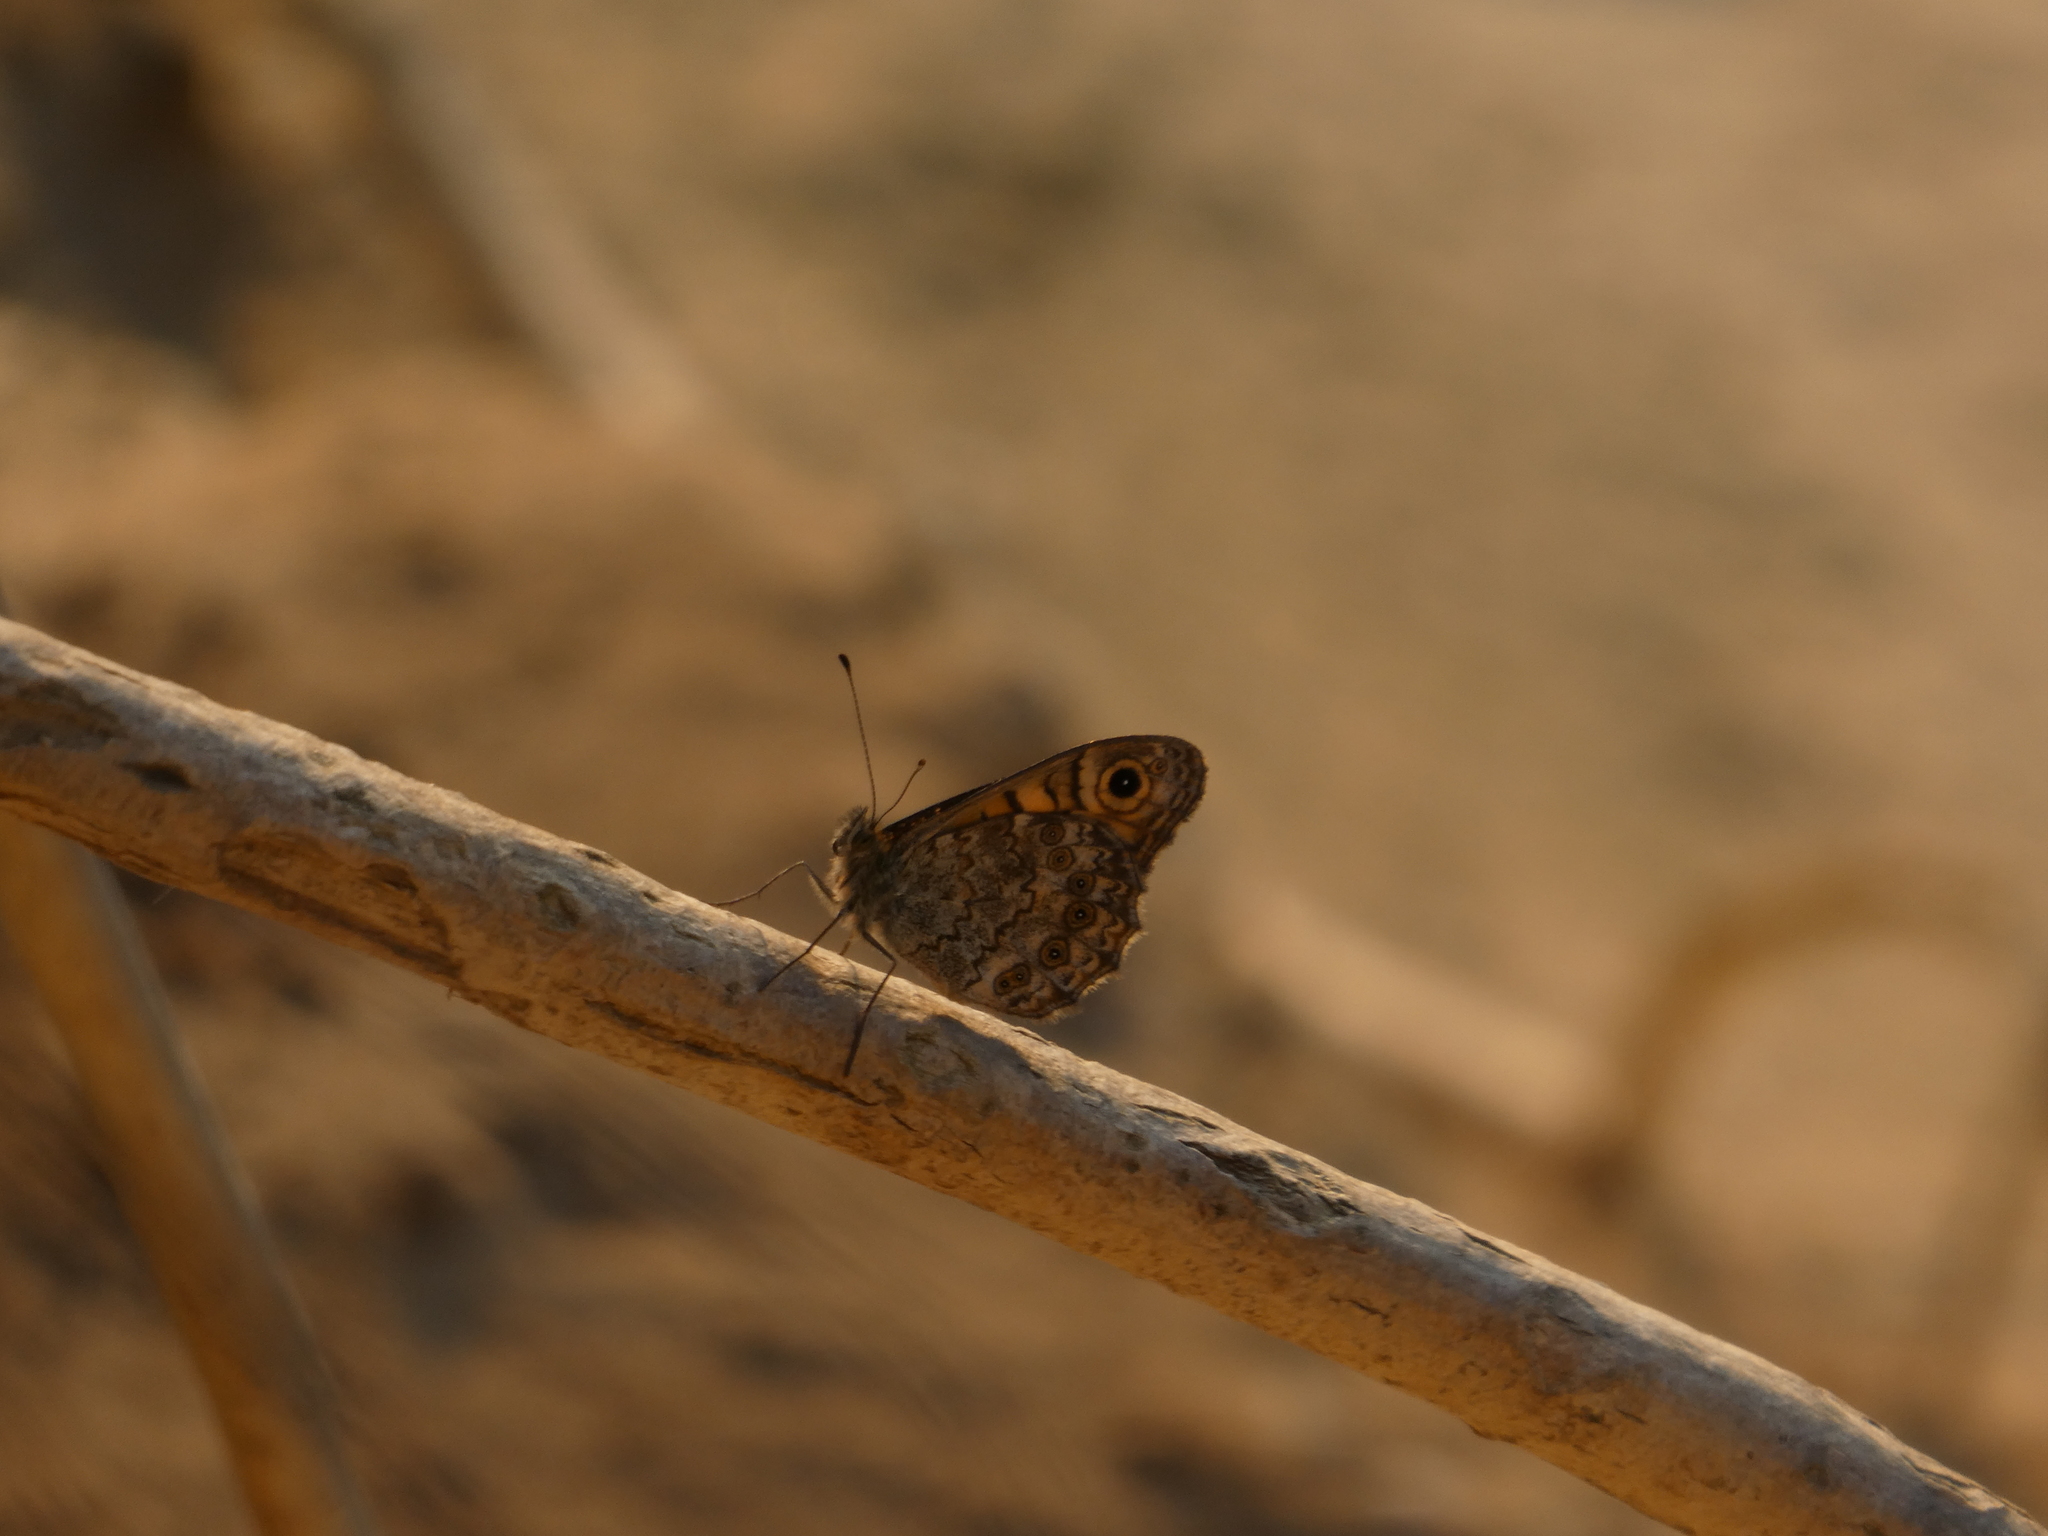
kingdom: Animalia
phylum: Arthropoda
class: Insecta
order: Lepidoptera
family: Nymphalidae
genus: Pararge
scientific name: Pararge Lasiommata megera
